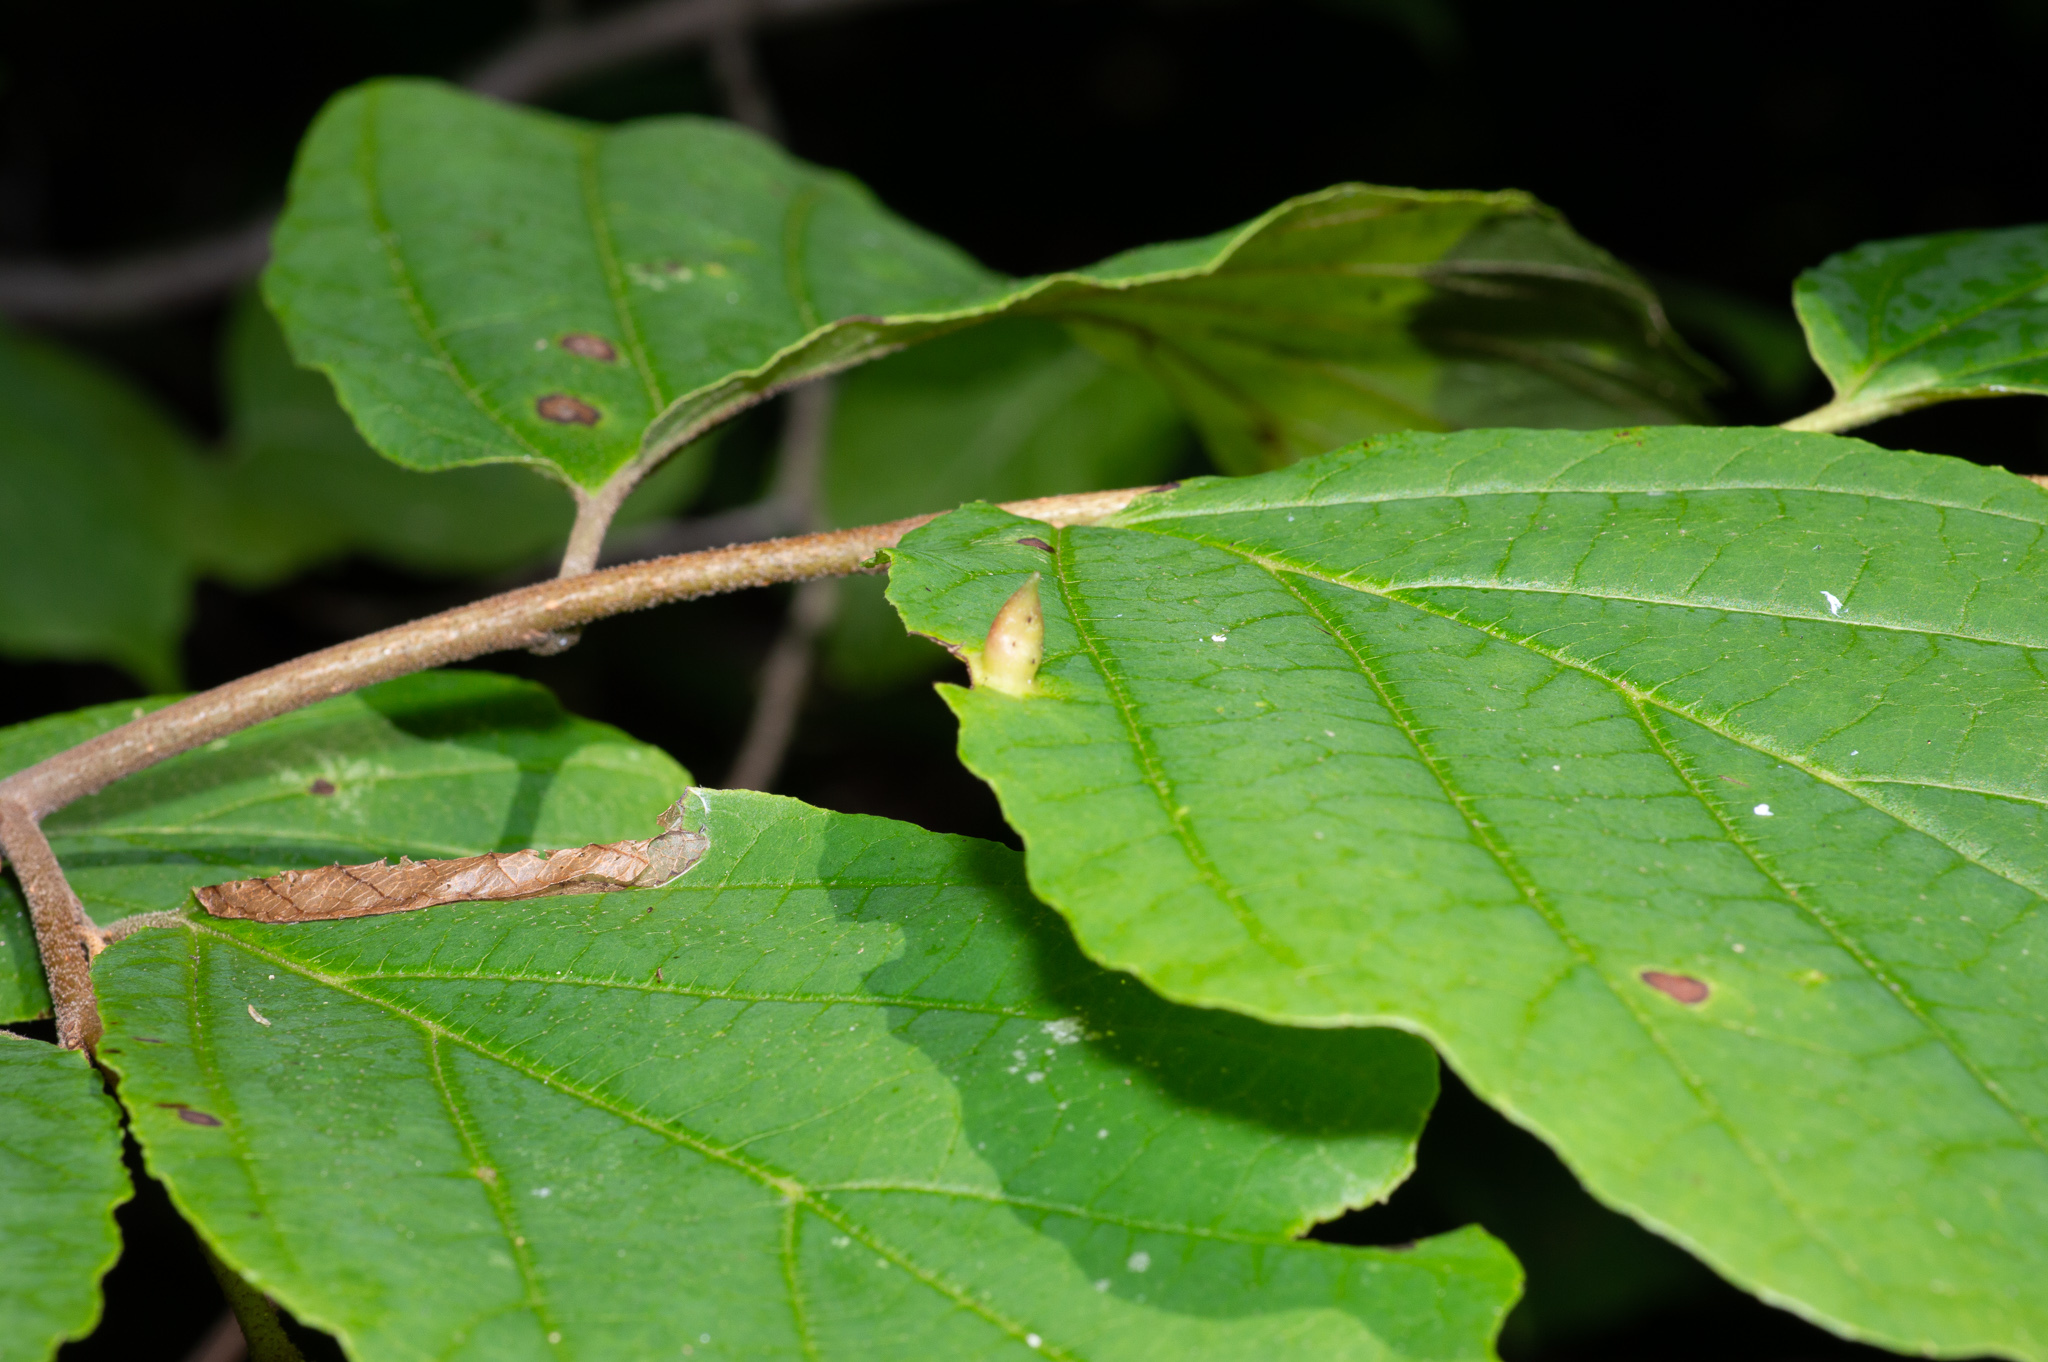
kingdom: Animalia
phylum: Arthropoda
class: Insecta
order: Hemiptera
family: Aphididae
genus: Hormaphis
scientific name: Hormaphis hamamelidis
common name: Witch-hazel cone gall aphid
